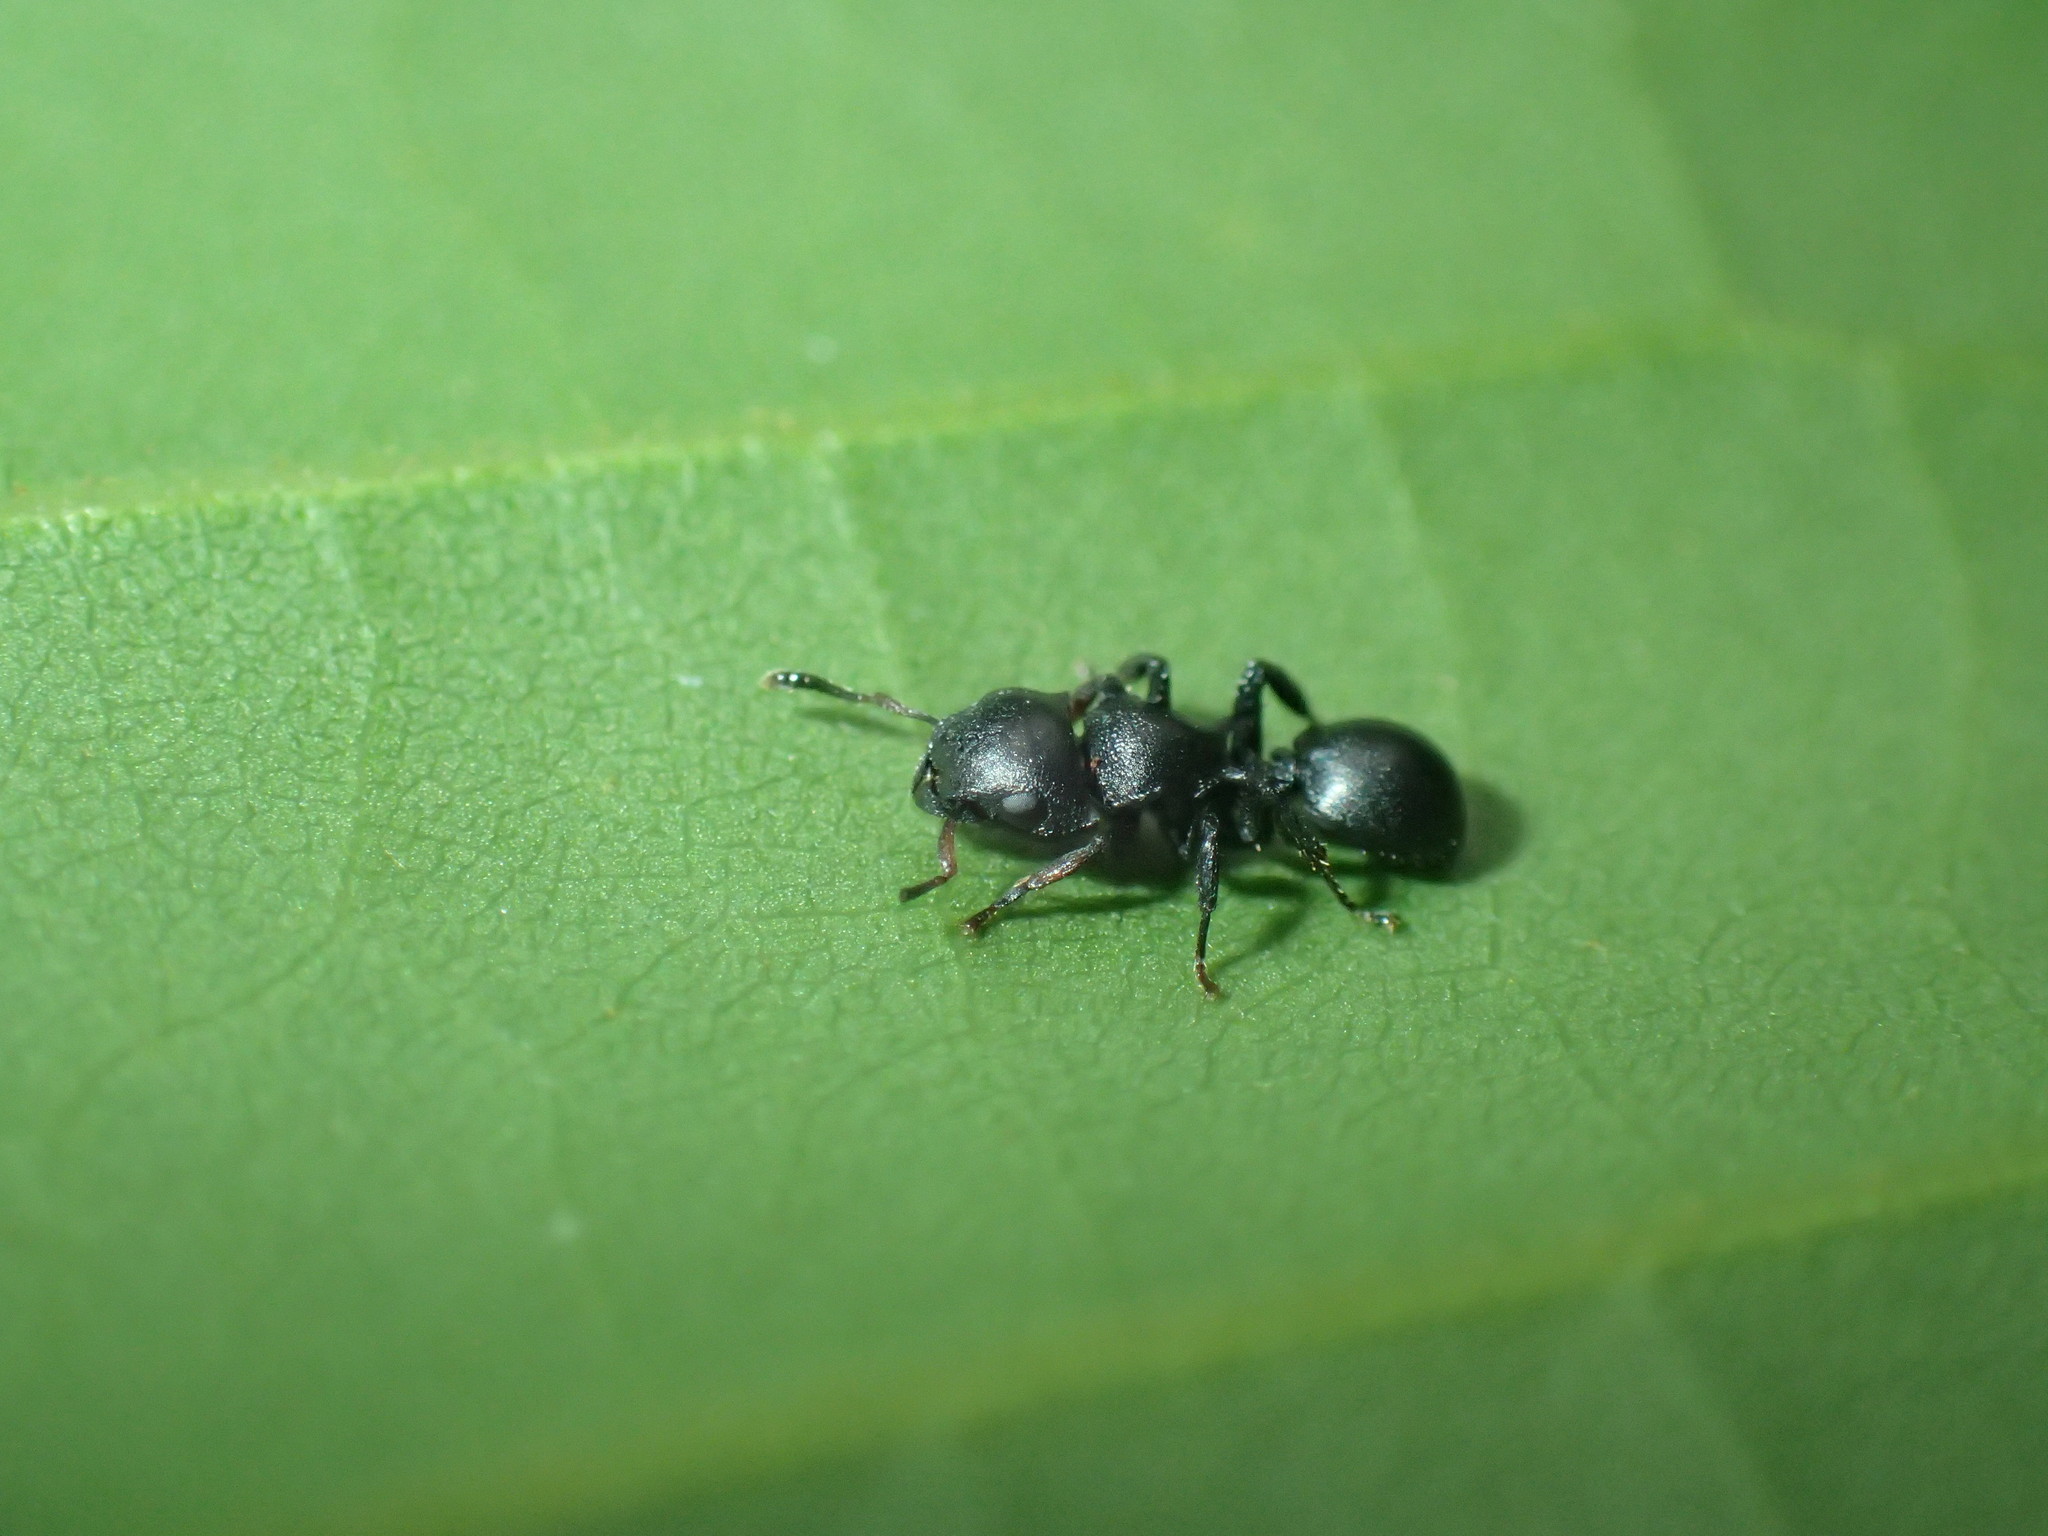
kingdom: Animalia
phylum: Arthropoda
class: Insecta
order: Hymenoptera
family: Formicidae
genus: Cataulacus
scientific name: Cataulacus kohli
